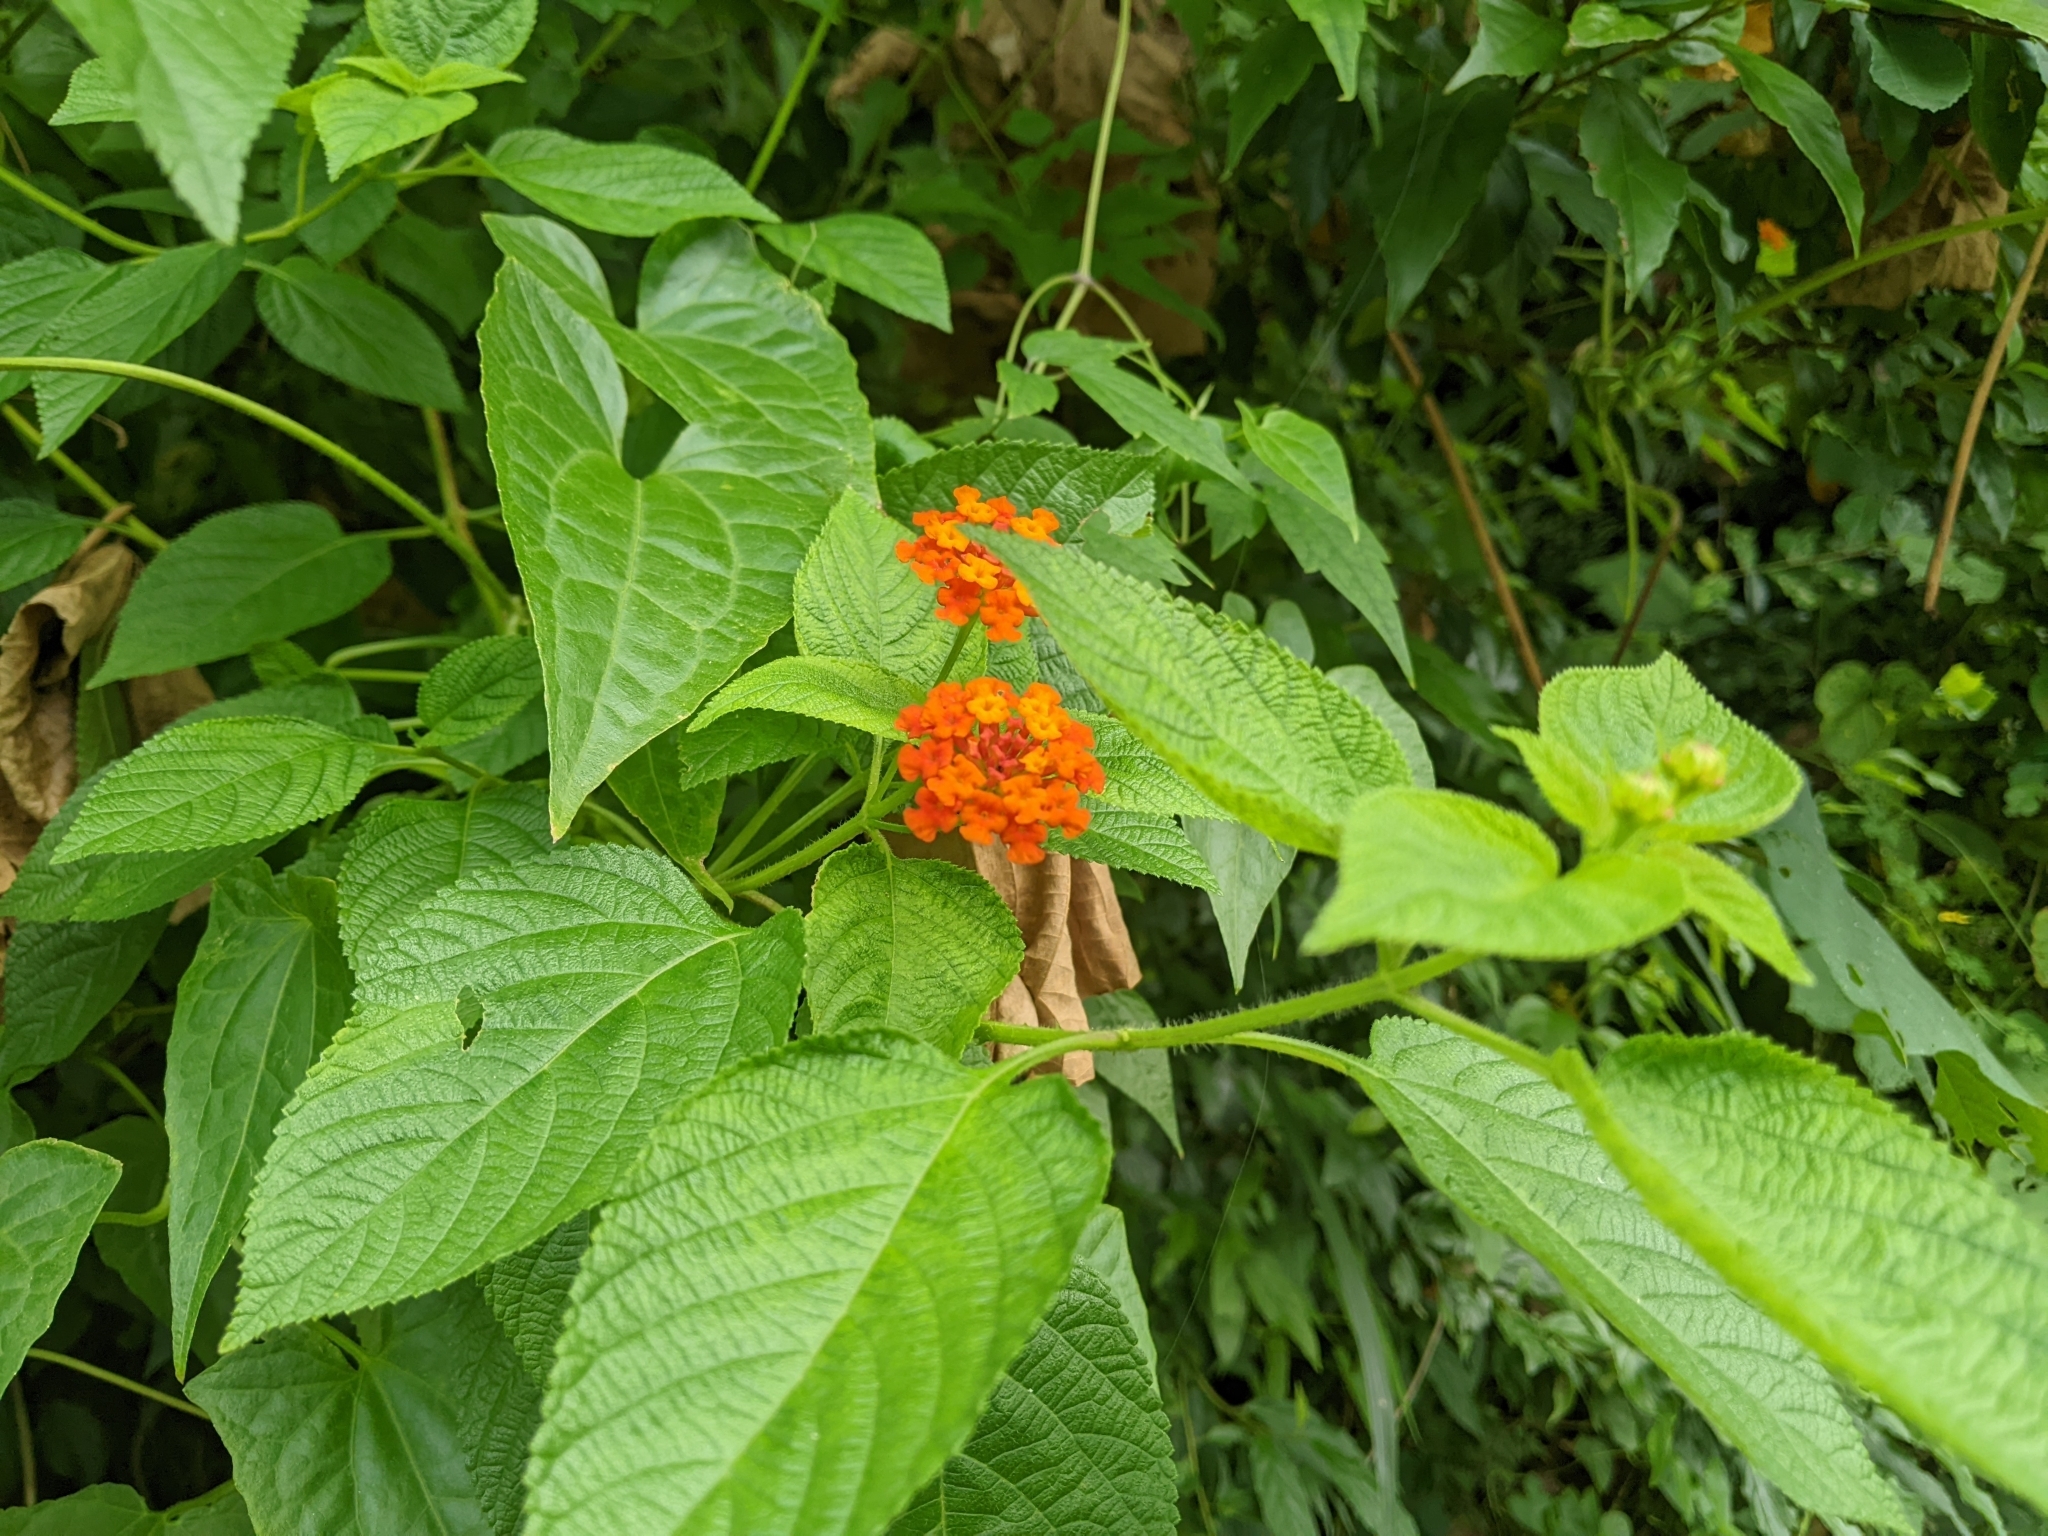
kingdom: Plantae
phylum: Tracheophyta
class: Magnoliopsida
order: Lamiales
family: Verbenaceae
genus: Lantana
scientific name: Lantana camara
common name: Lantana
